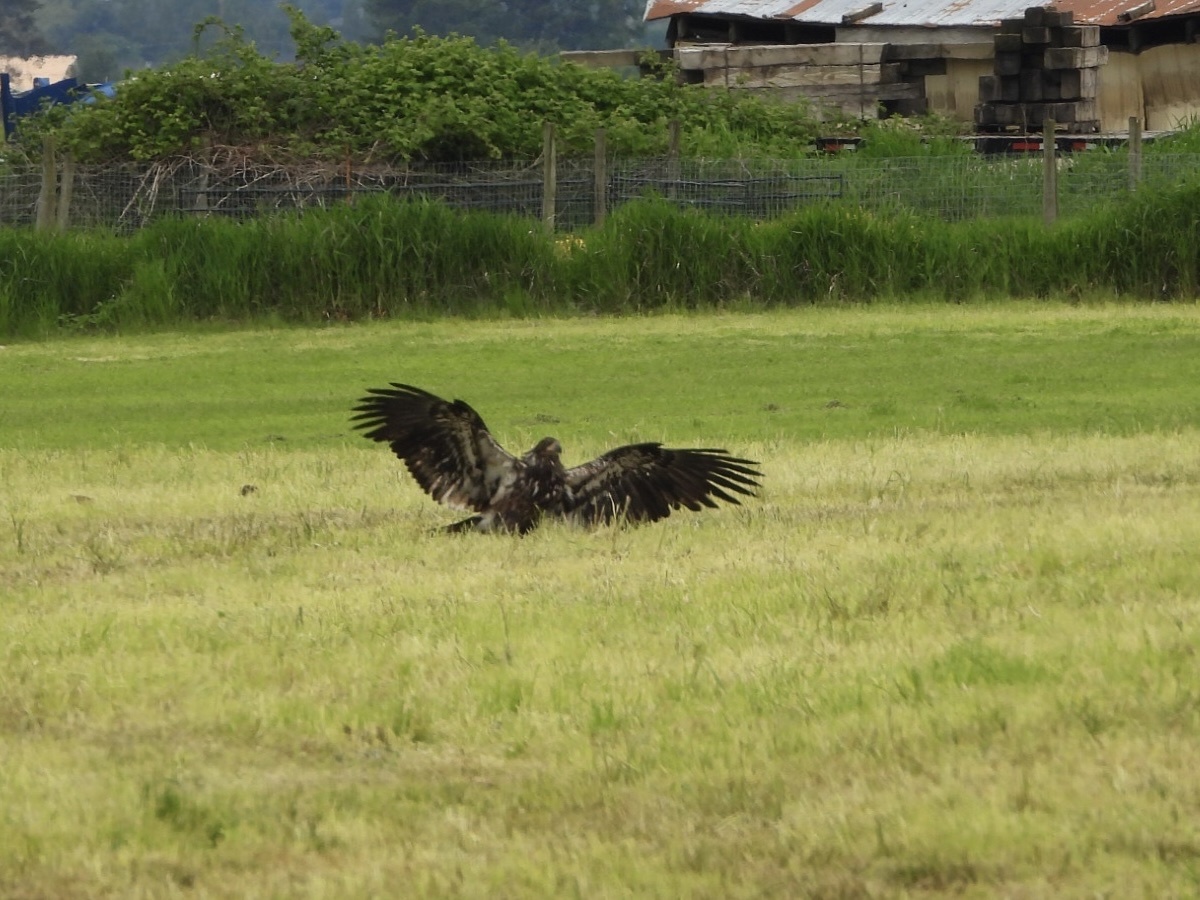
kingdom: Animalia
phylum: Chordata
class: Aves
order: Accipitriformes
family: Accipitridae
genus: Haliaeetus
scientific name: Haliaeetus leucocephalus
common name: Bald eagle
